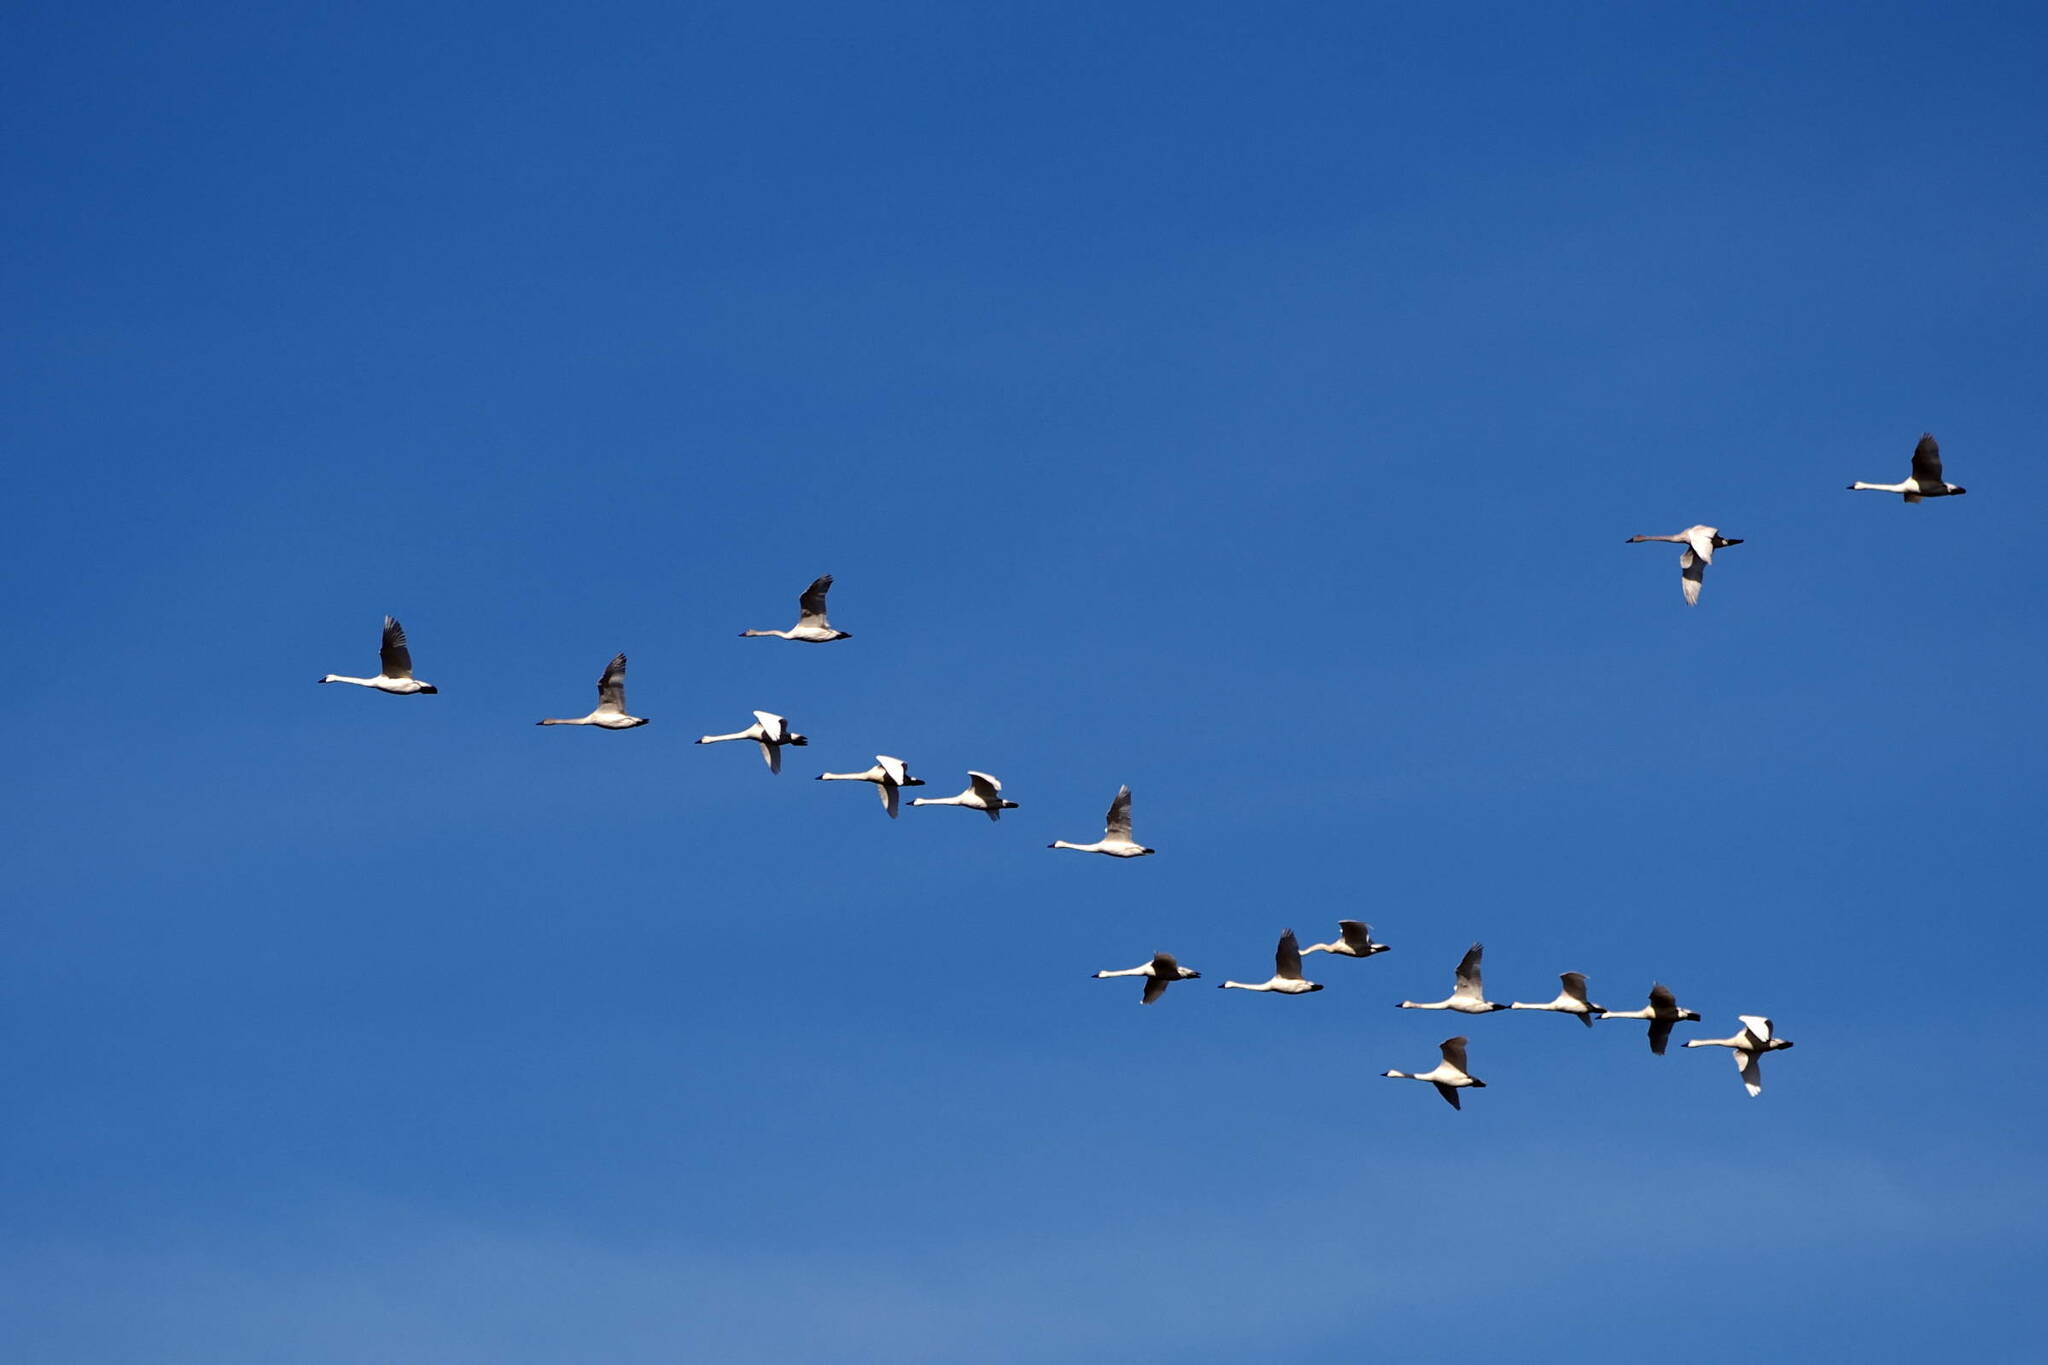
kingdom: Animalia
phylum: Chordata
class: Aves
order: Anseriformes
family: Anatidae
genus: Cygnus
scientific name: Cygnus columbianus
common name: Tundra swan
